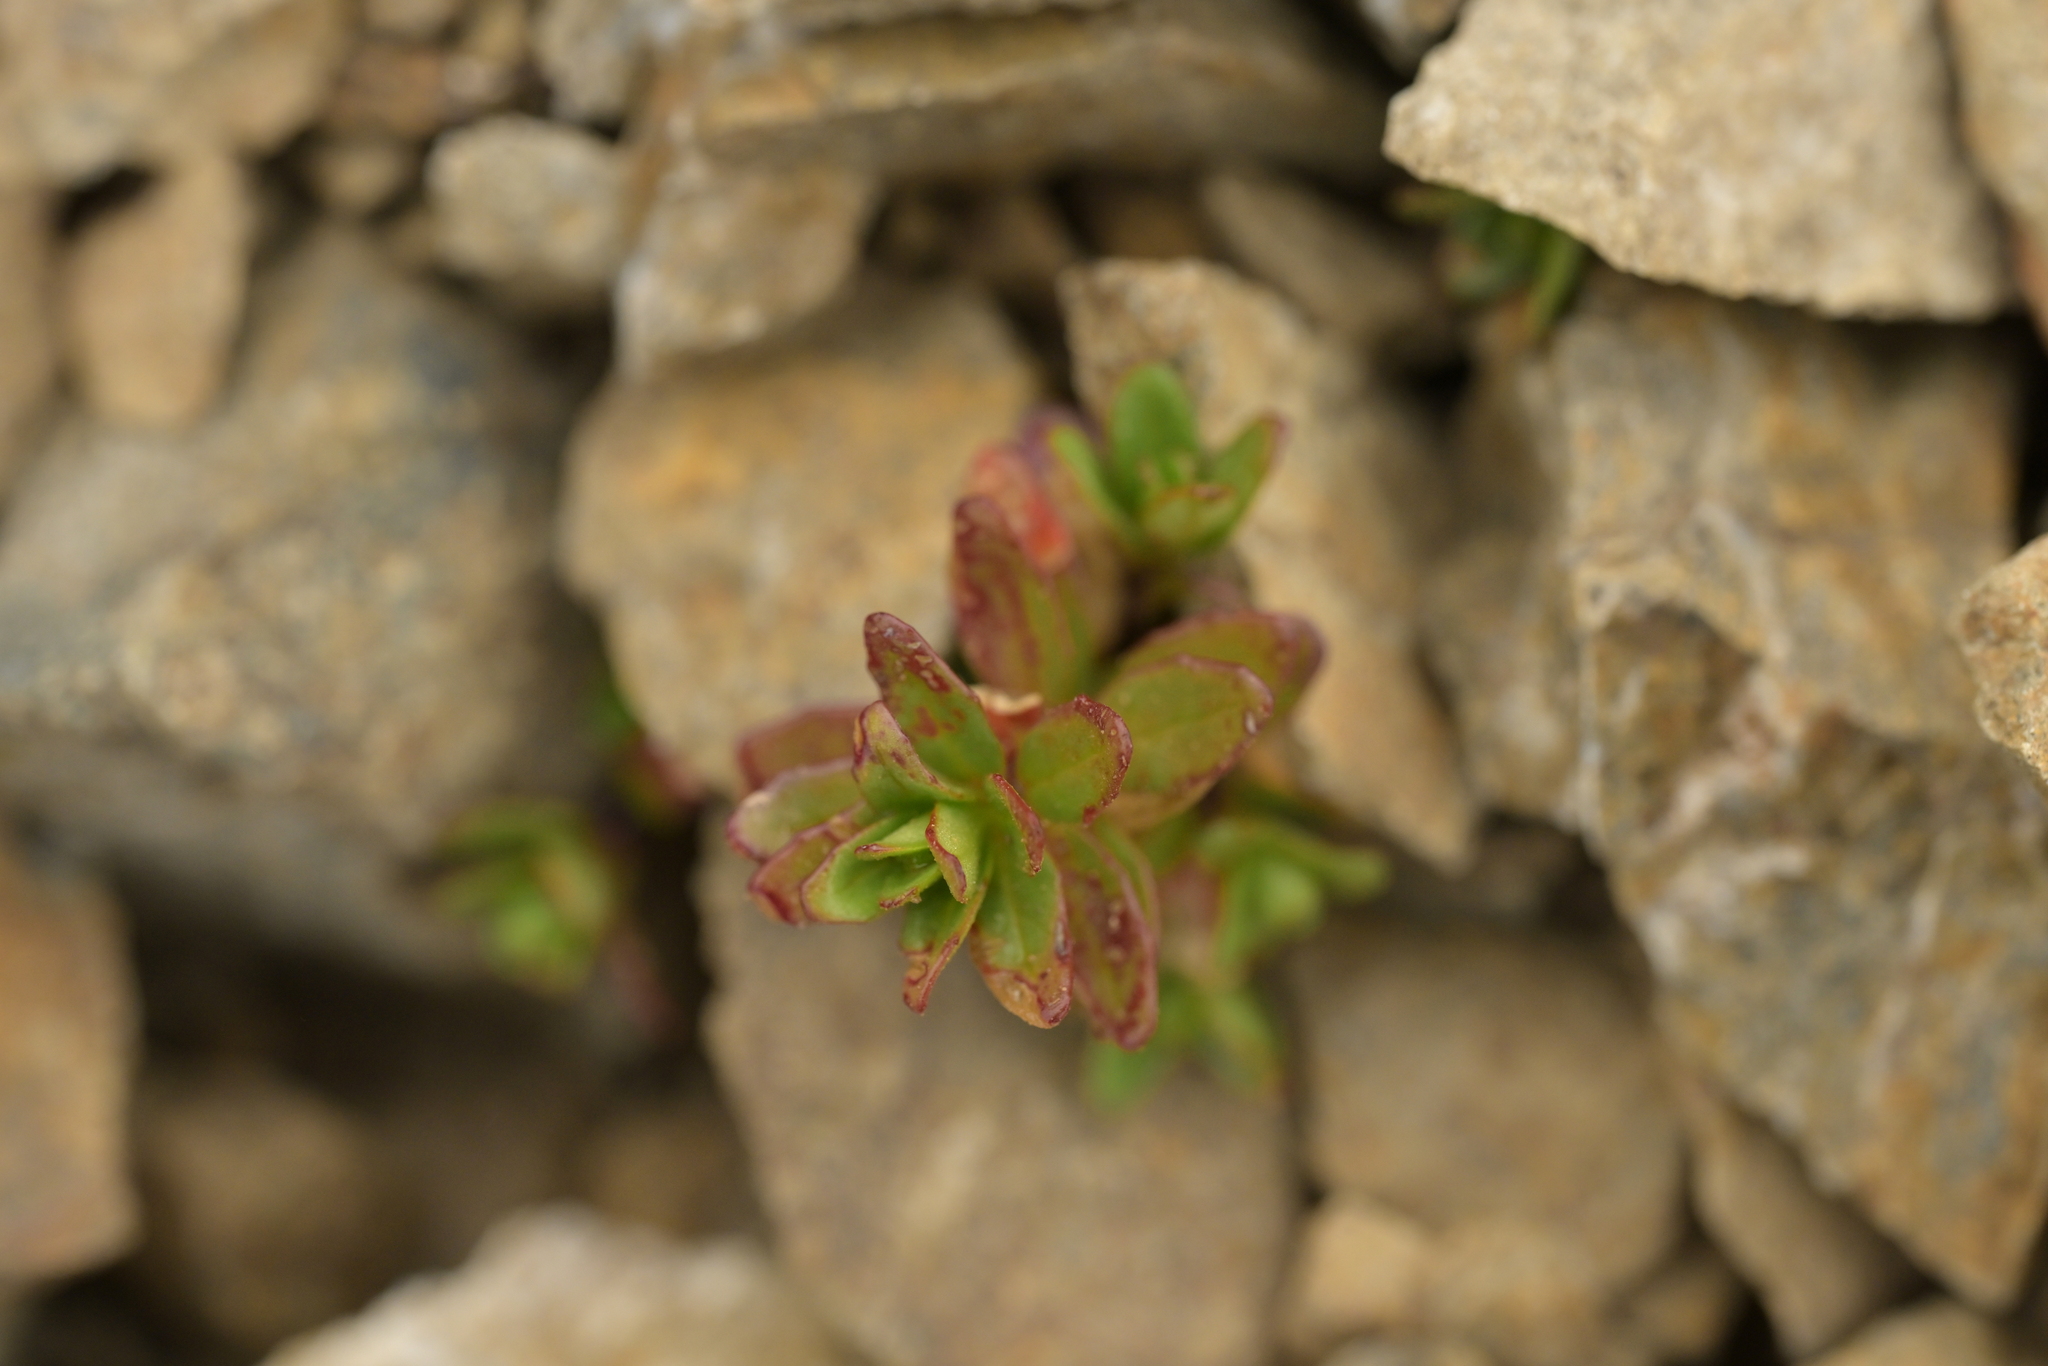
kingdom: Plantae
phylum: Tracheophyta
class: Magnoliopsida
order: Myrtales
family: Onagraceae
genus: Epilobium
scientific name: Epilobium glabellum
